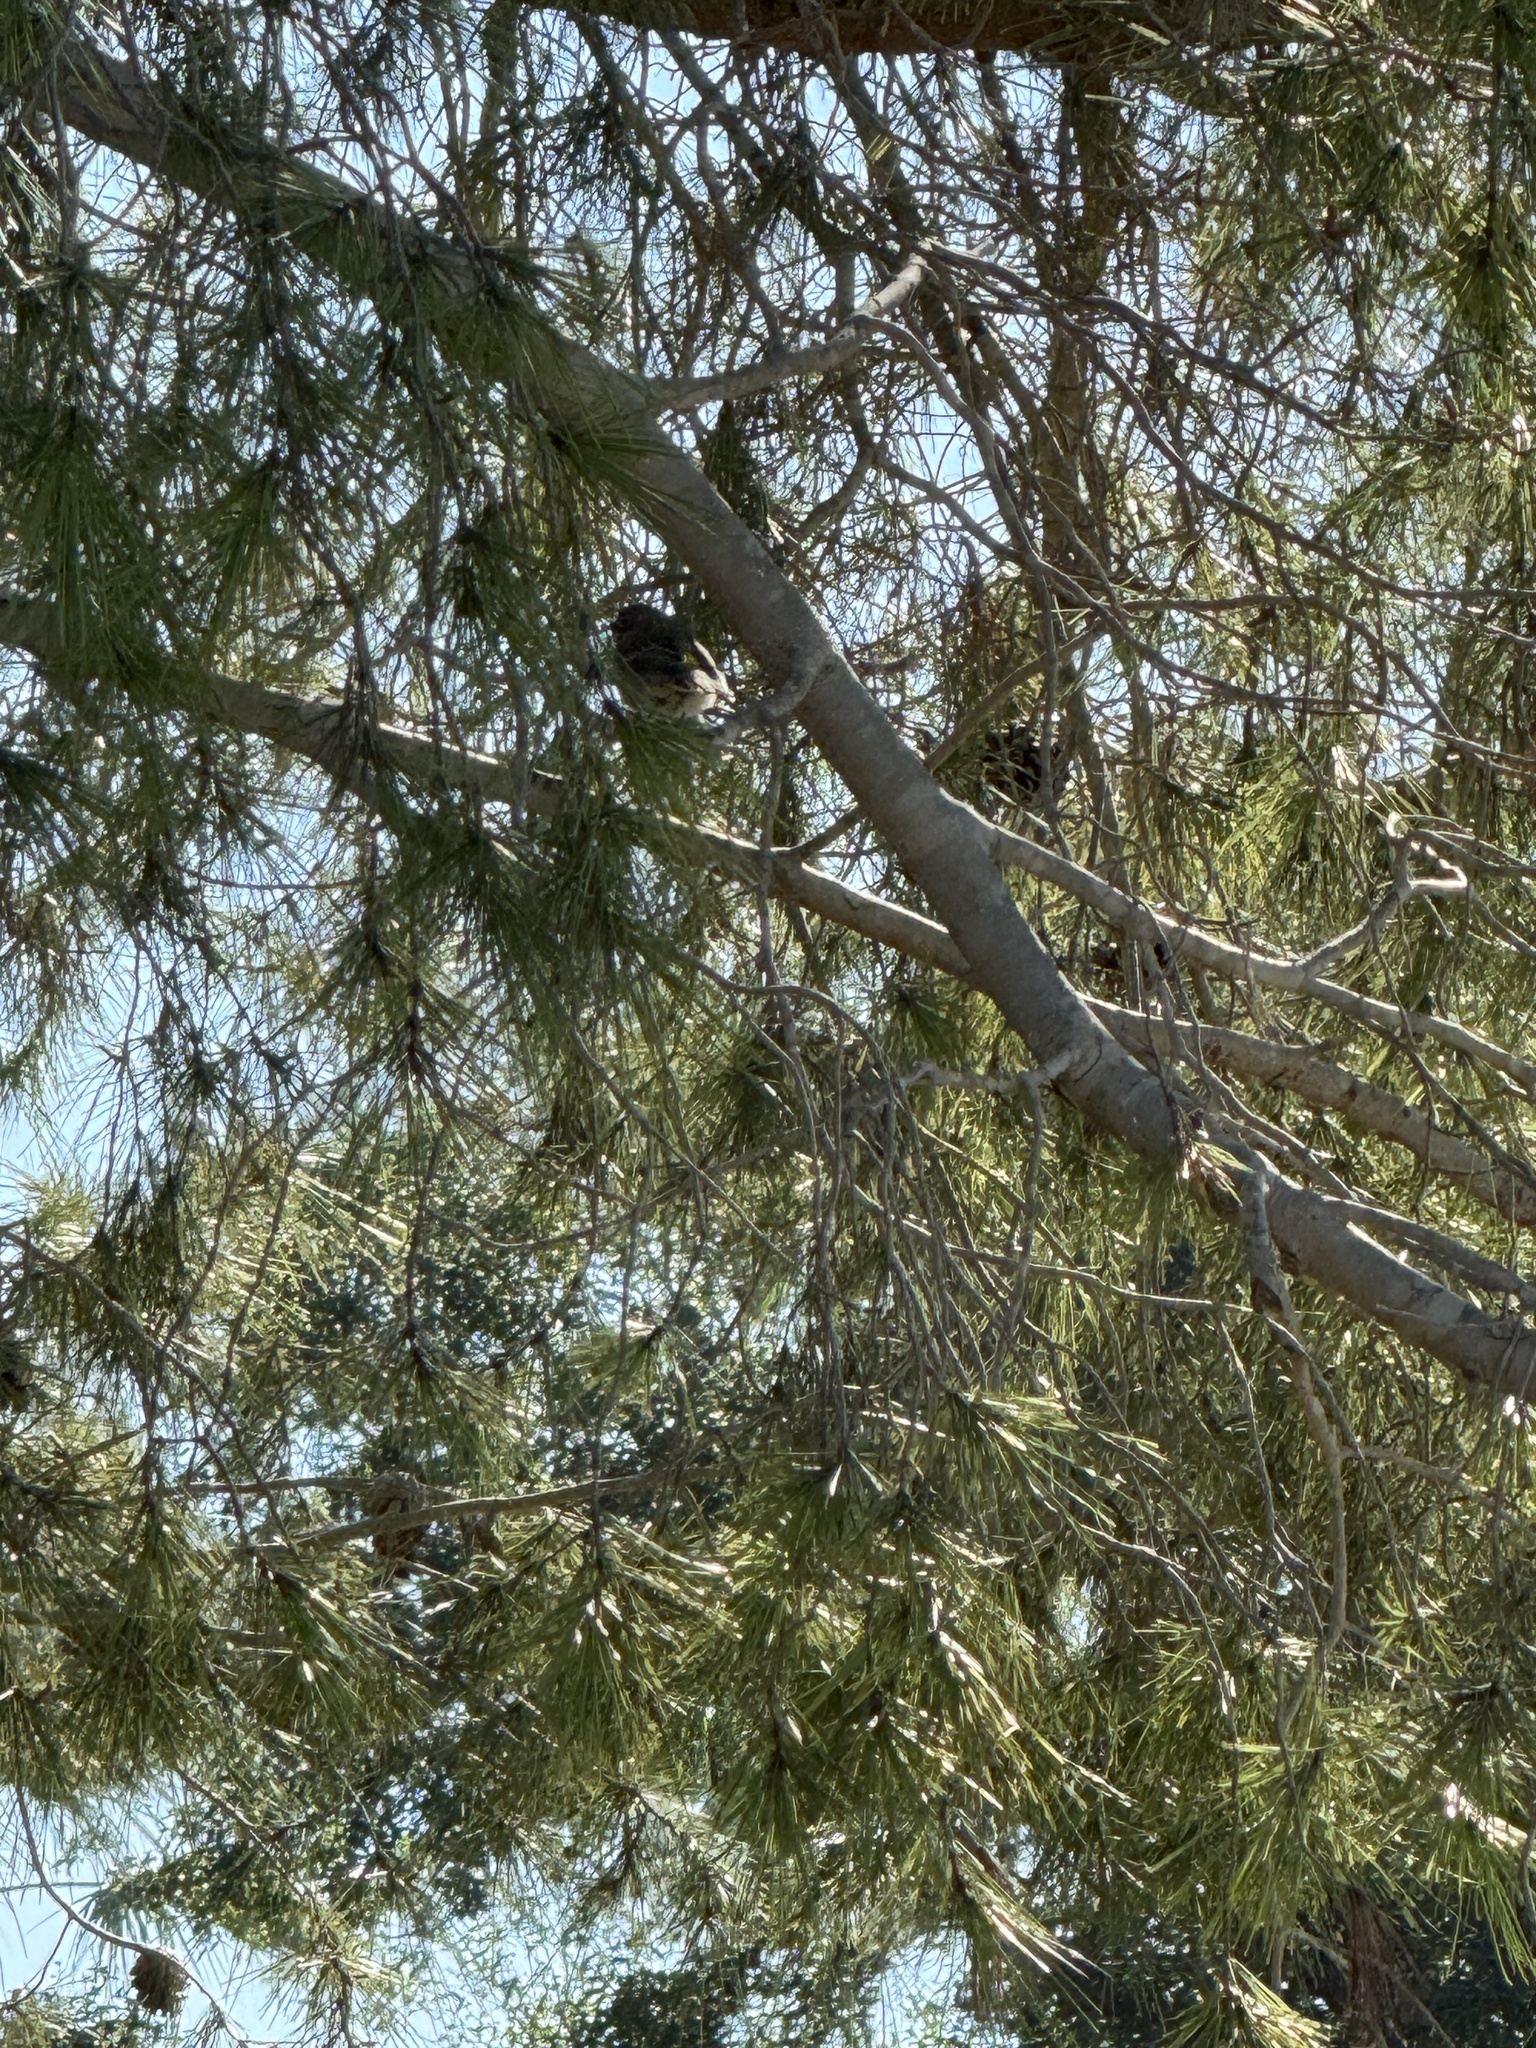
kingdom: Animalia
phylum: Chordata
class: Aves
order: Passeriformes
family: Parulidae
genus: Setophaga
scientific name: Setophaga coronata
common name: Myrtle warbler
